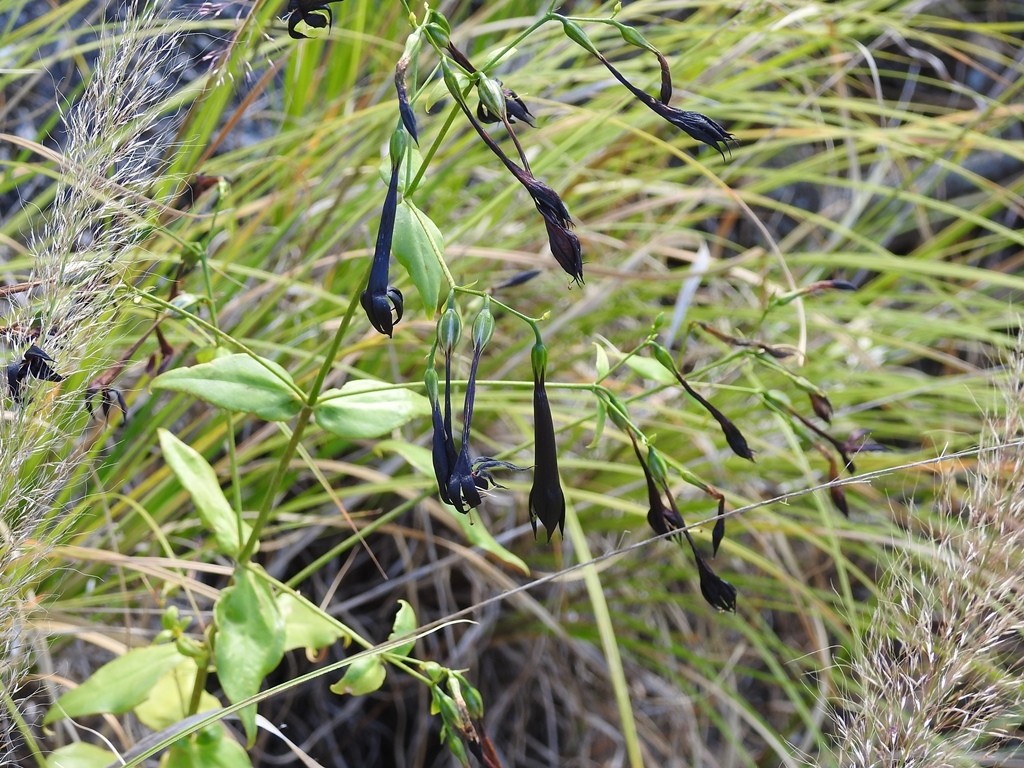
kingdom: Plantae
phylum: Tracheophyta
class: Magnoliopsida
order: Gentianales
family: Gentianaceae
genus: Lisianthus
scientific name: Lisianthus nigrescens
